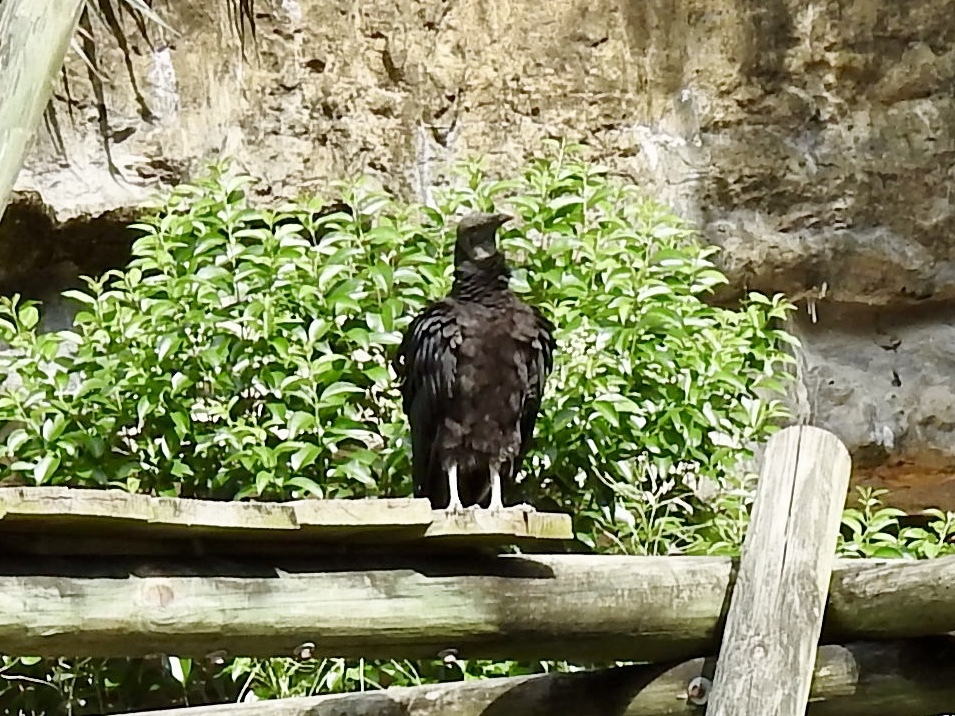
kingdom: Animalia
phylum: Chordata
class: Aves
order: Accipitriformes
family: Cathartidae
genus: Coragyps
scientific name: Coragyps atratus
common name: Black vulture
